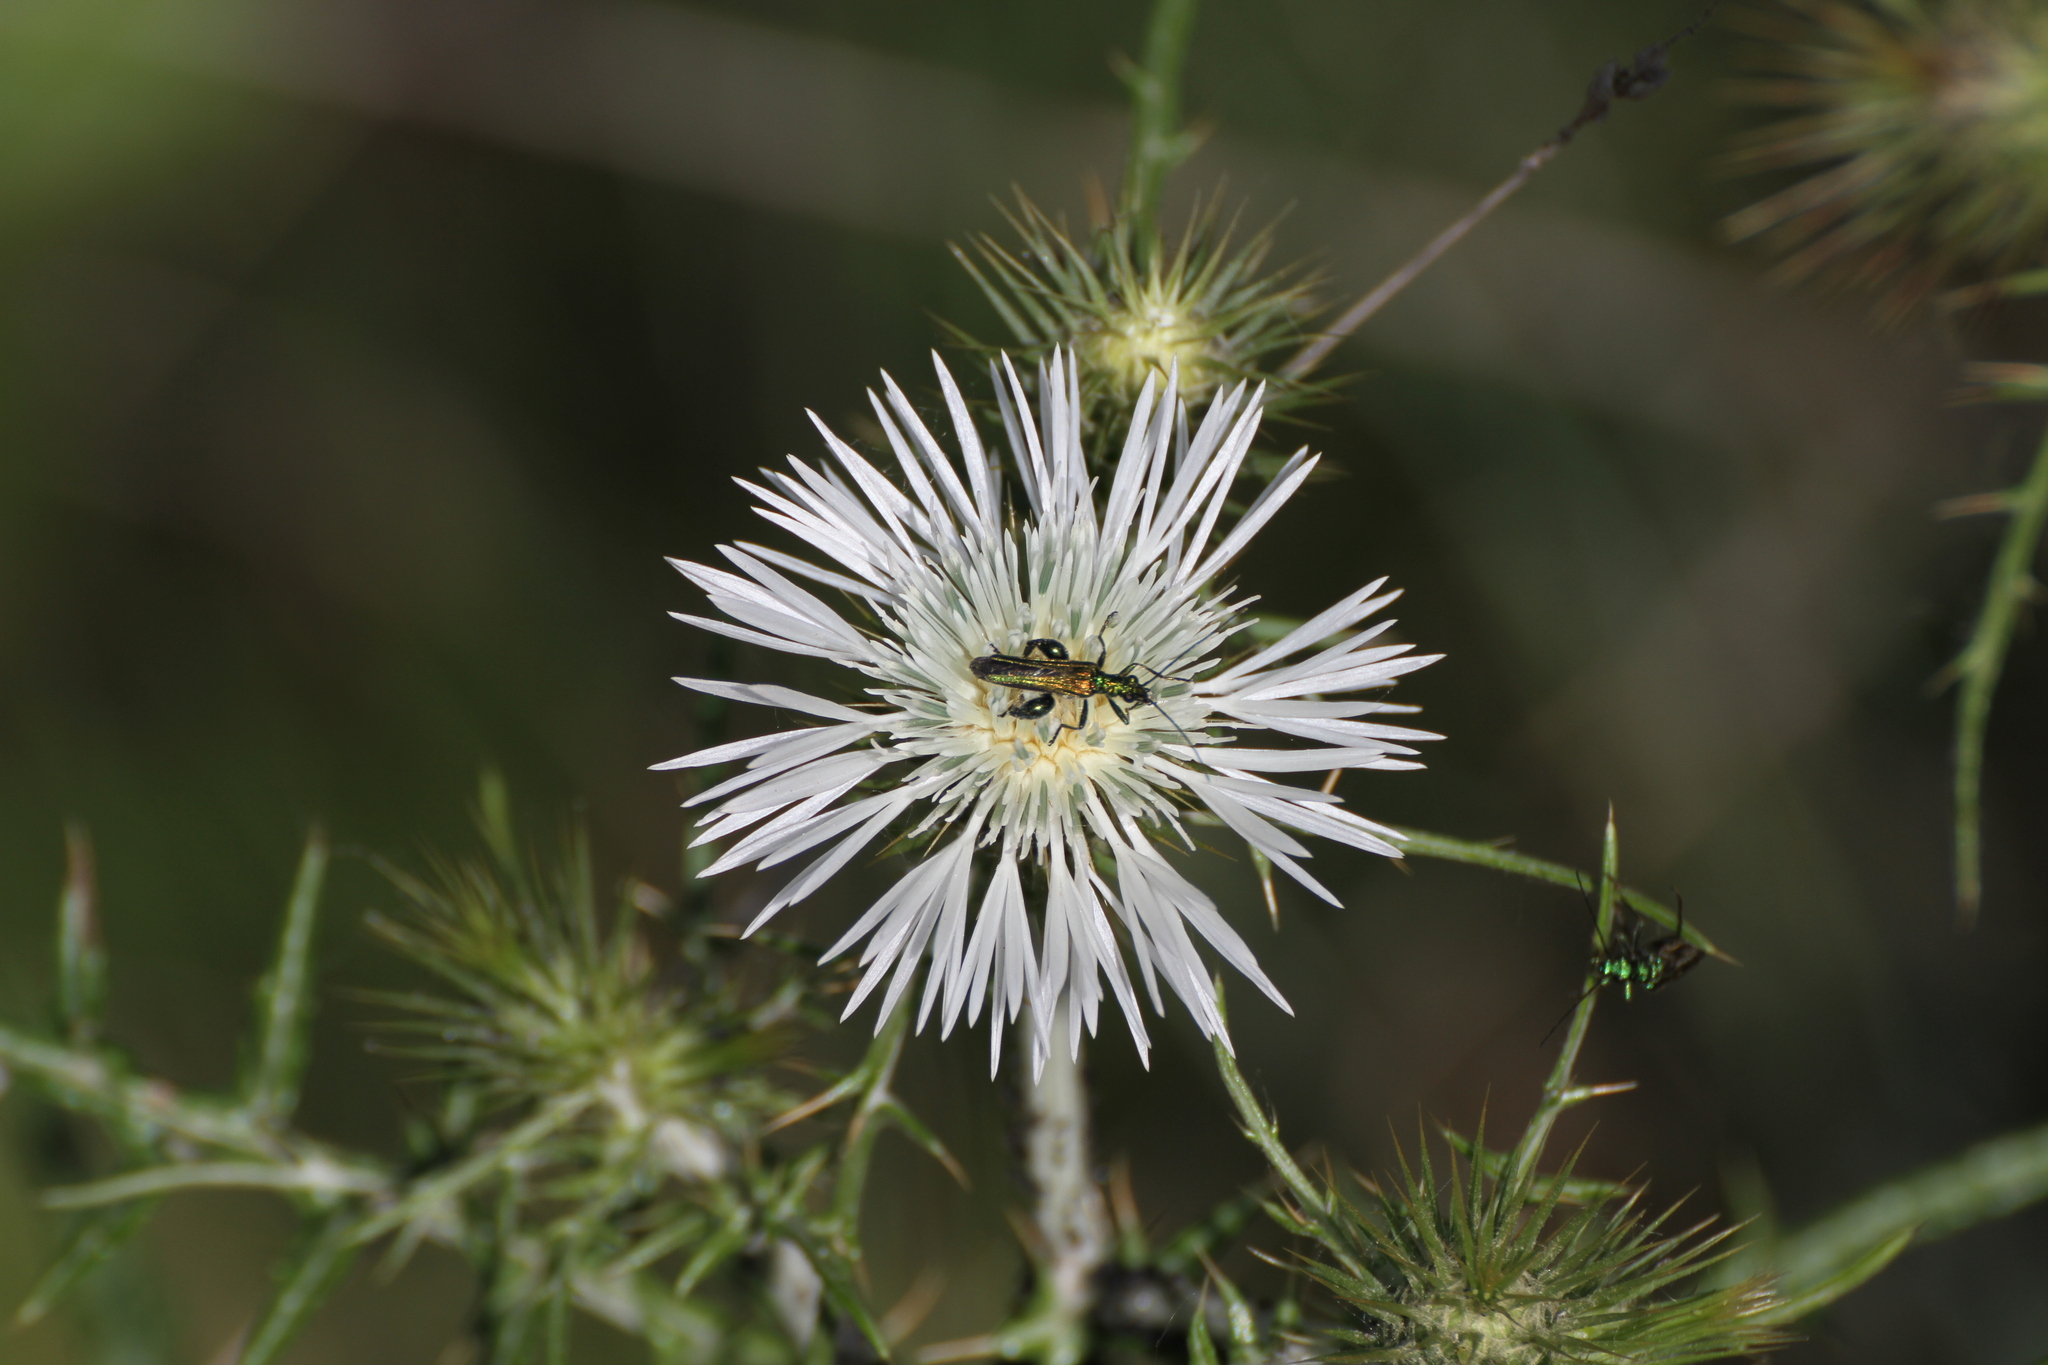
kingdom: Animalia
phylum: Arthropoda
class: Insecta
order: Coleoptera
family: Oedemeridae
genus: Oedemera
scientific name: Oedemera nobilis
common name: Swollen-thighed beetle
